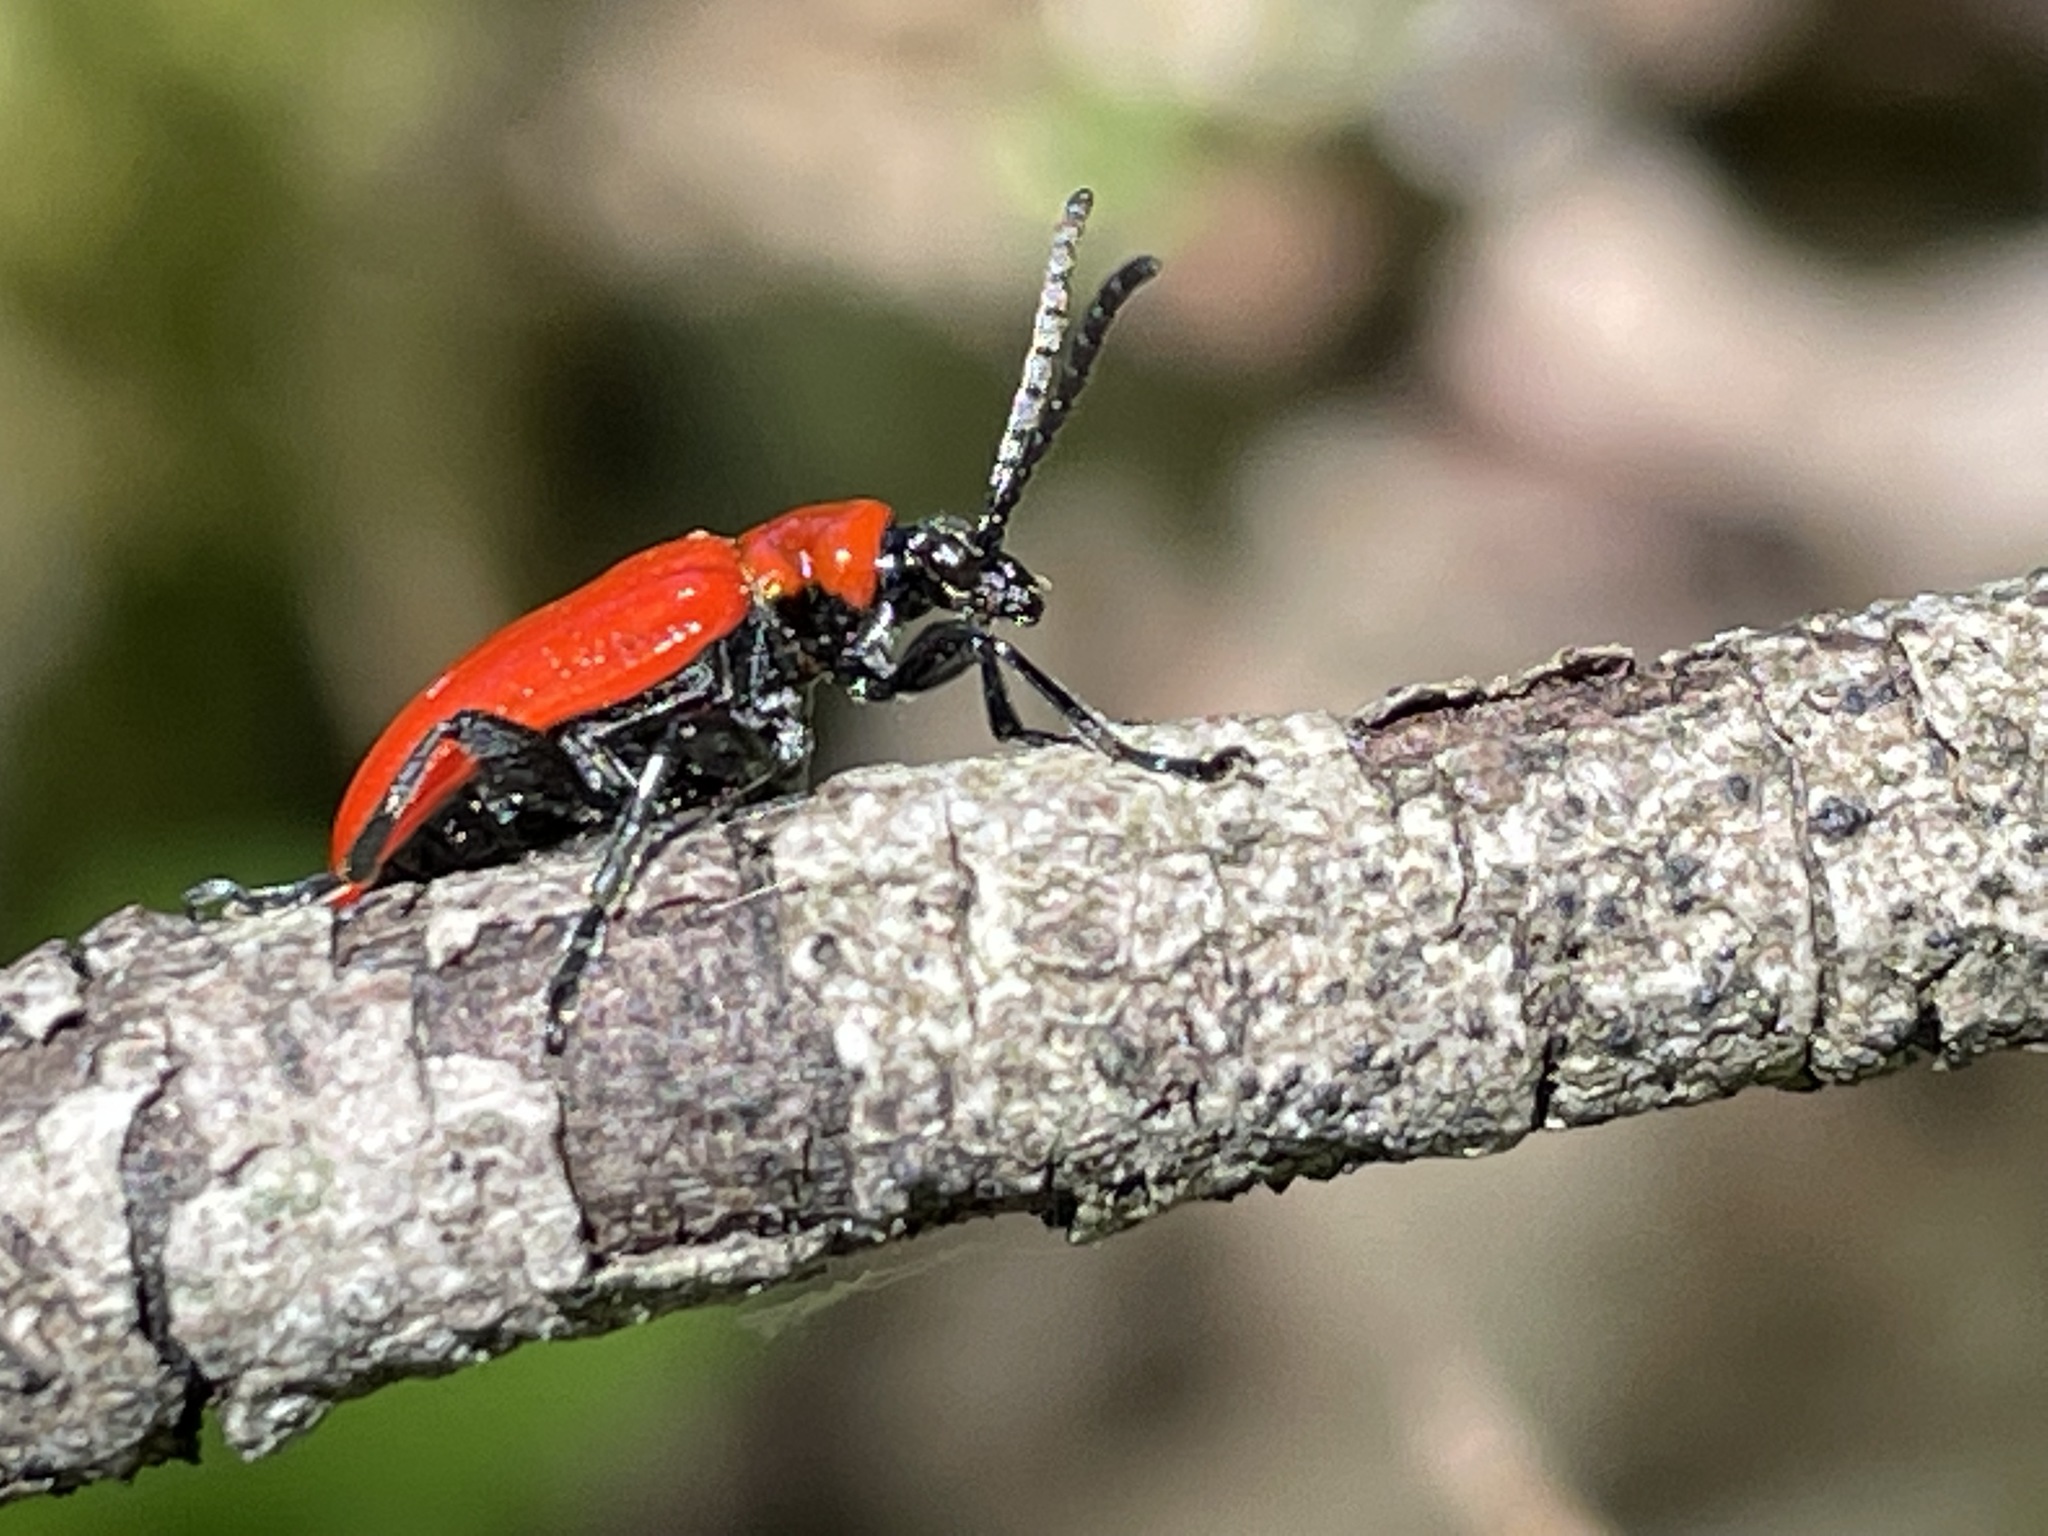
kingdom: Animalia
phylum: Arthropoda
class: Insecta
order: Coleoptera
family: Chrysomelidae
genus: Lilioceris
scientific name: Lilioceris lilii
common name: Lily beetle
